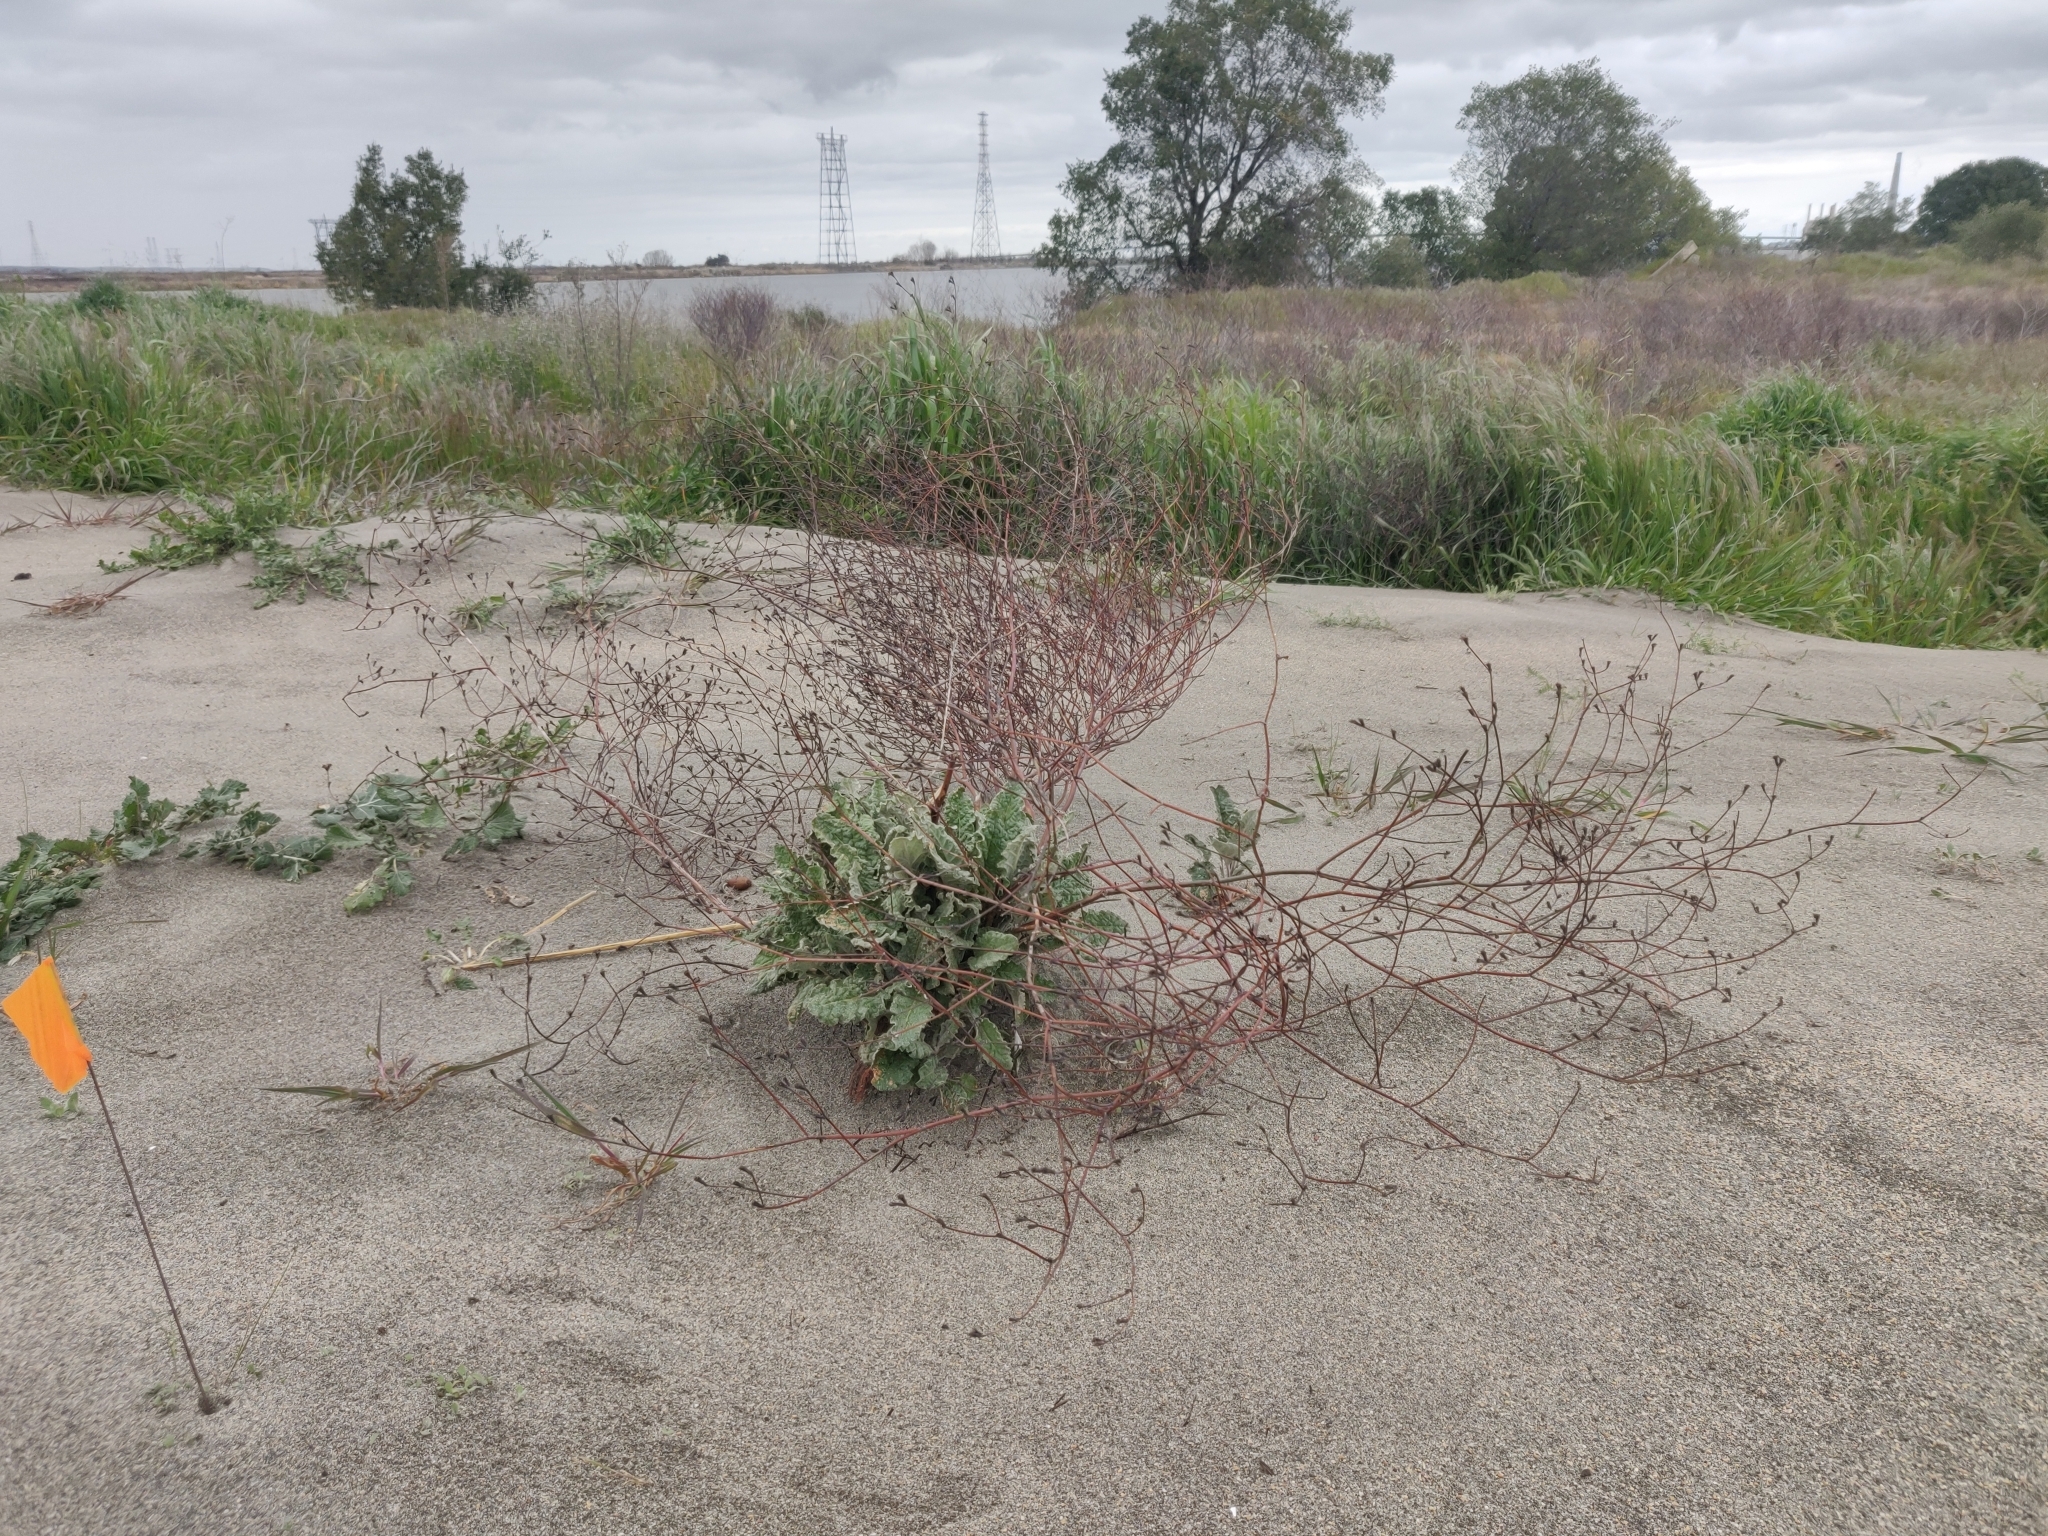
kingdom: Plantae
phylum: Tracheophyta
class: Magnoliopsida
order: Caryophyllales
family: Polygonaceae
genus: Eriogonum
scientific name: Eriogonum nudum
